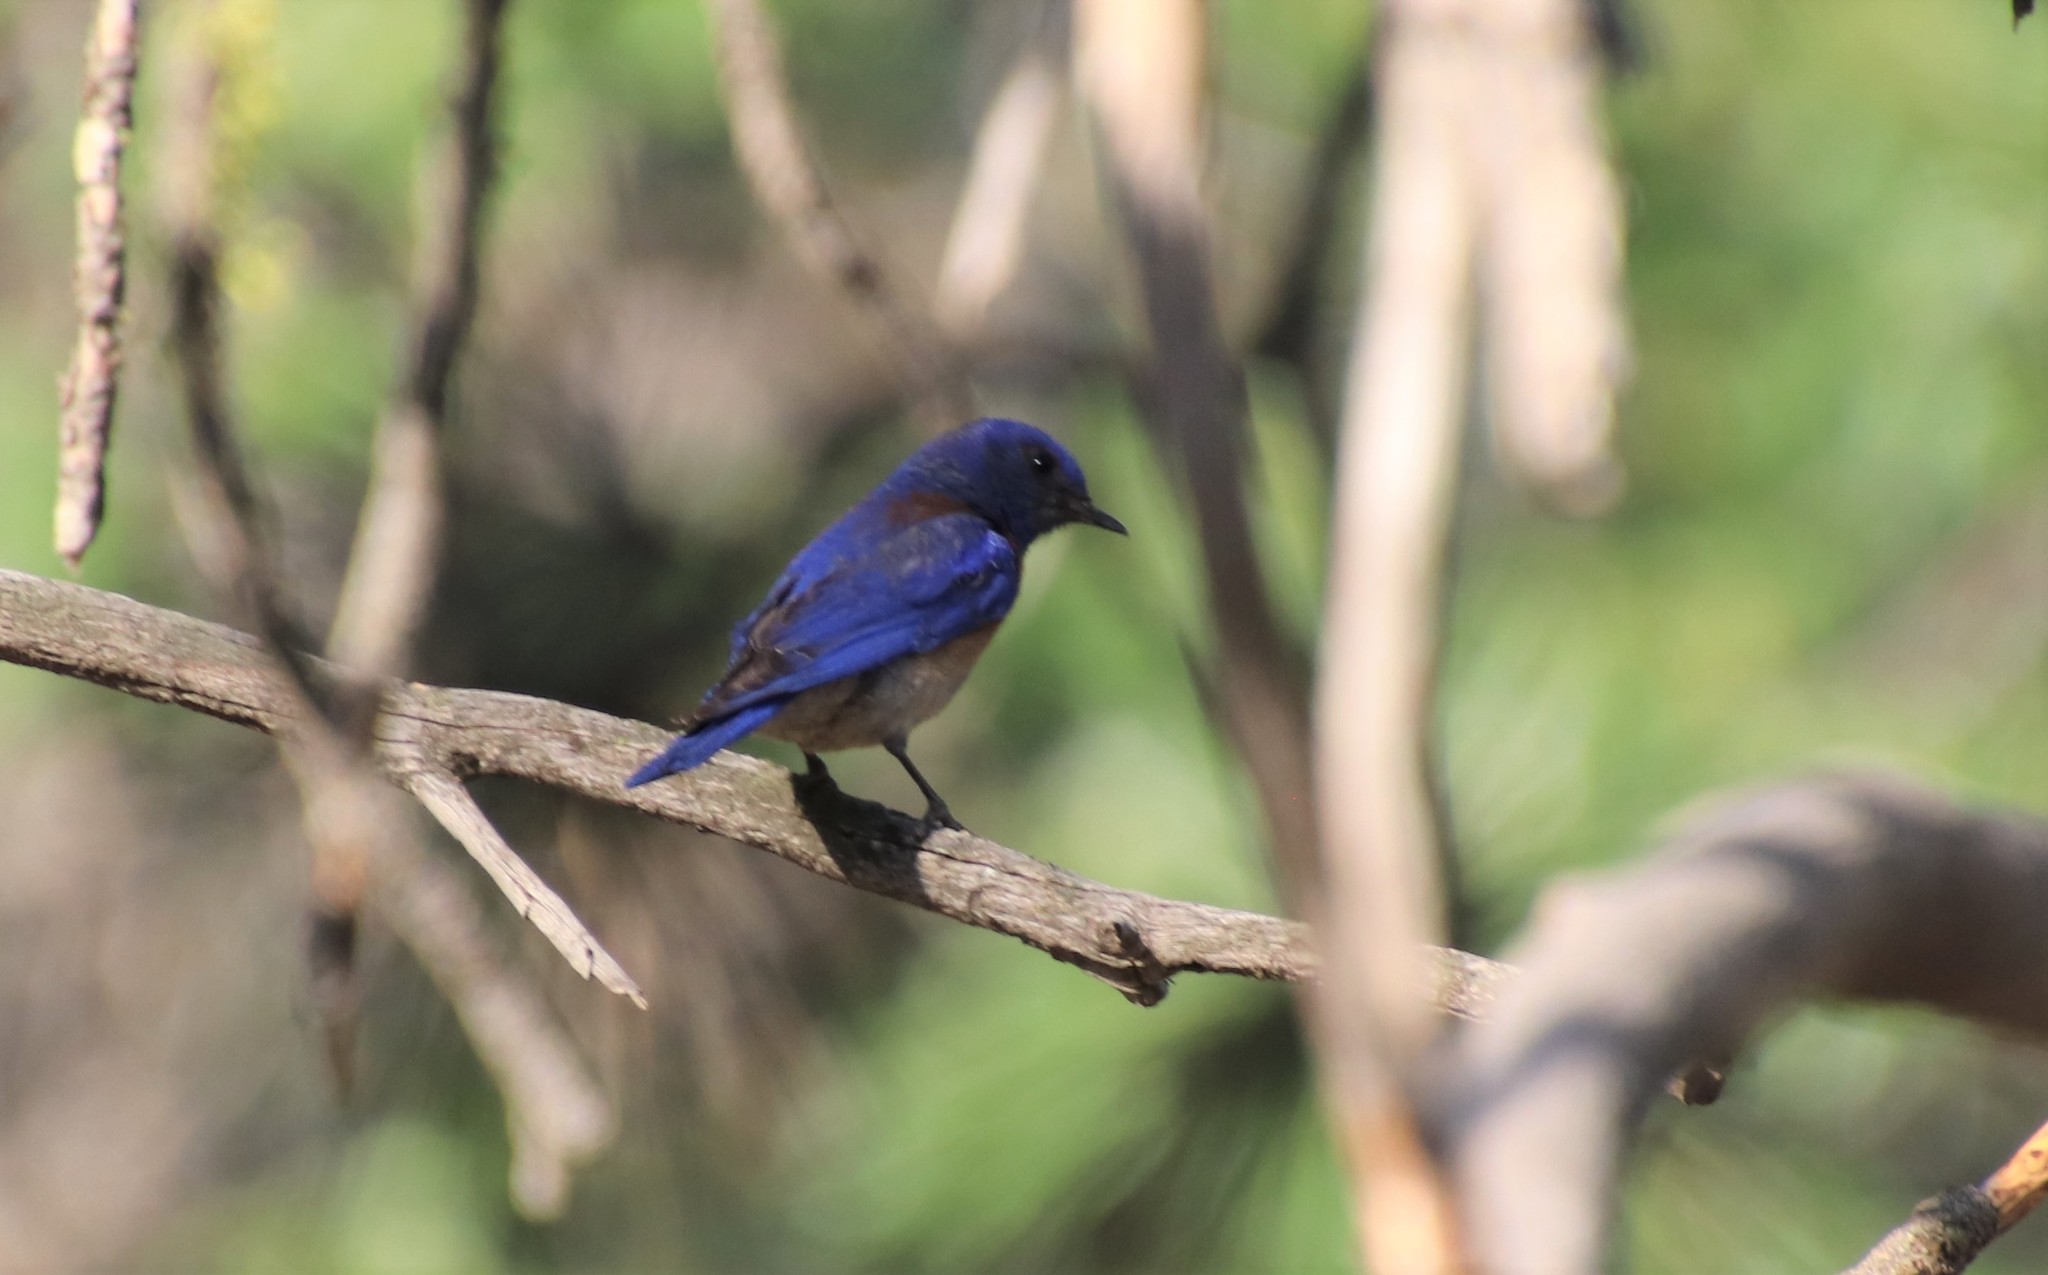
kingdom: Animalia
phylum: Chordata
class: Aves
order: Passeriformes
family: Turdidae
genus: Sialia
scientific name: Sialia mexicana
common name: Western bluebird
